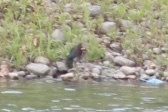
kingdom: Animalia
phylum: Chordata
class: Aves
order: Pelecaniformes
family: Ardeidae
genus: Butorides
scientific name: Butorides virescens
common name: Green heron
